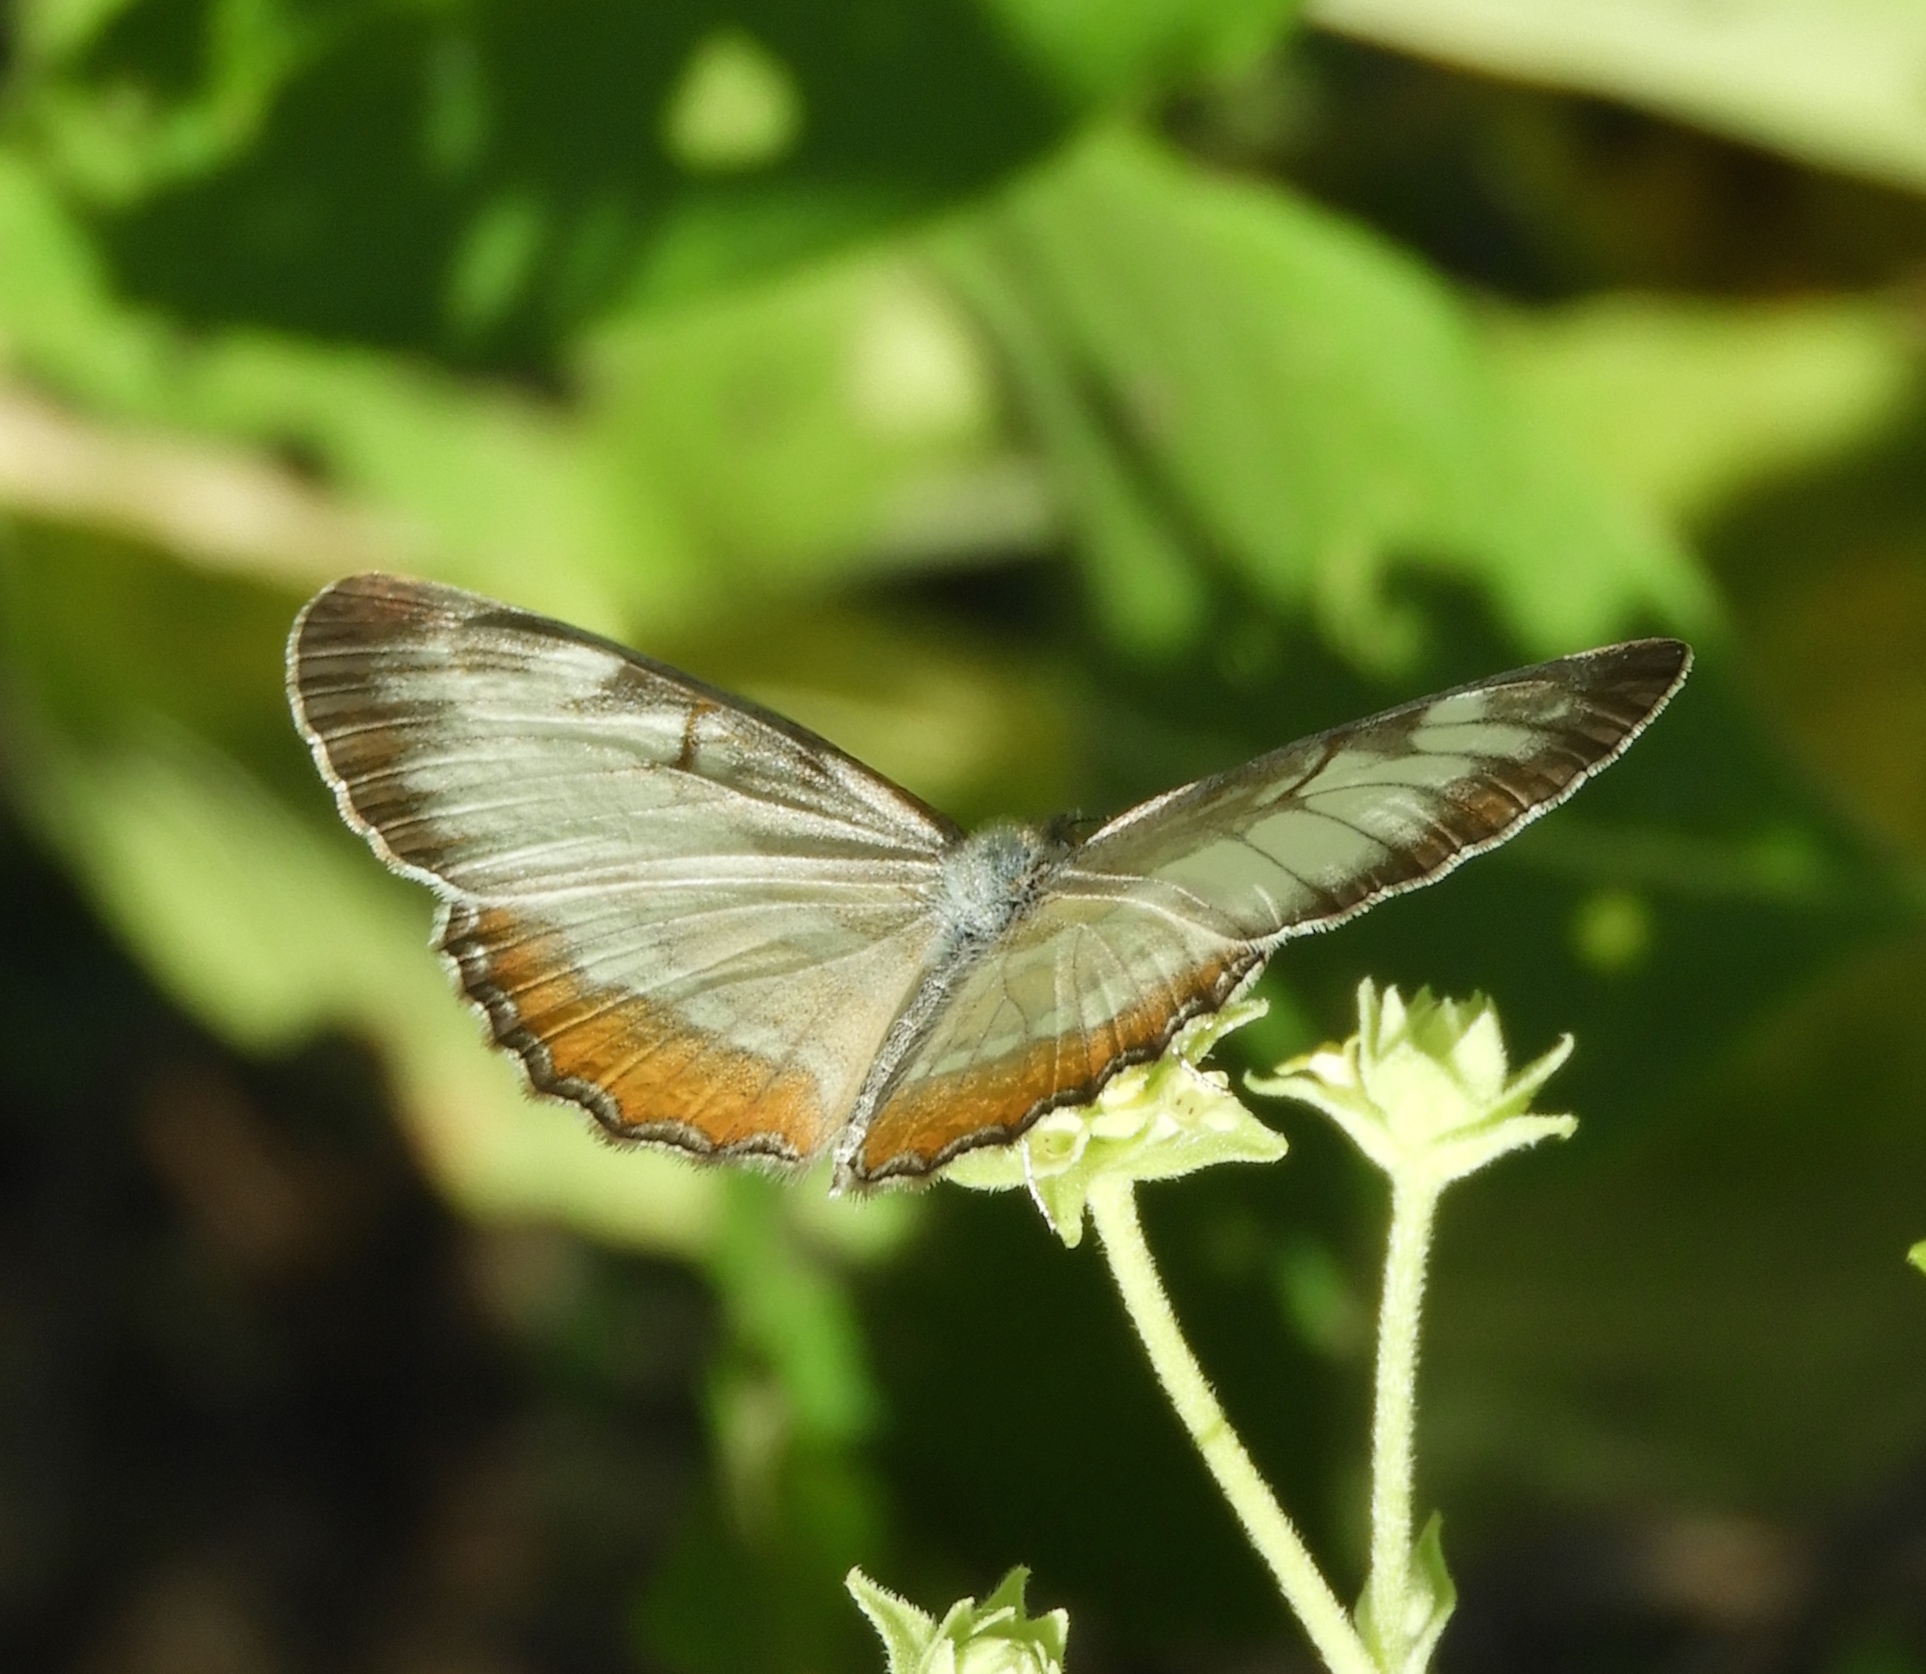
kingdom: Animalia
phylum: Arthropoda
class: Insecta
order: Lepidoptera
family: Nymphalidae
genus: Mestra
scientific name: Mestra amymone
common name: Common mestra
